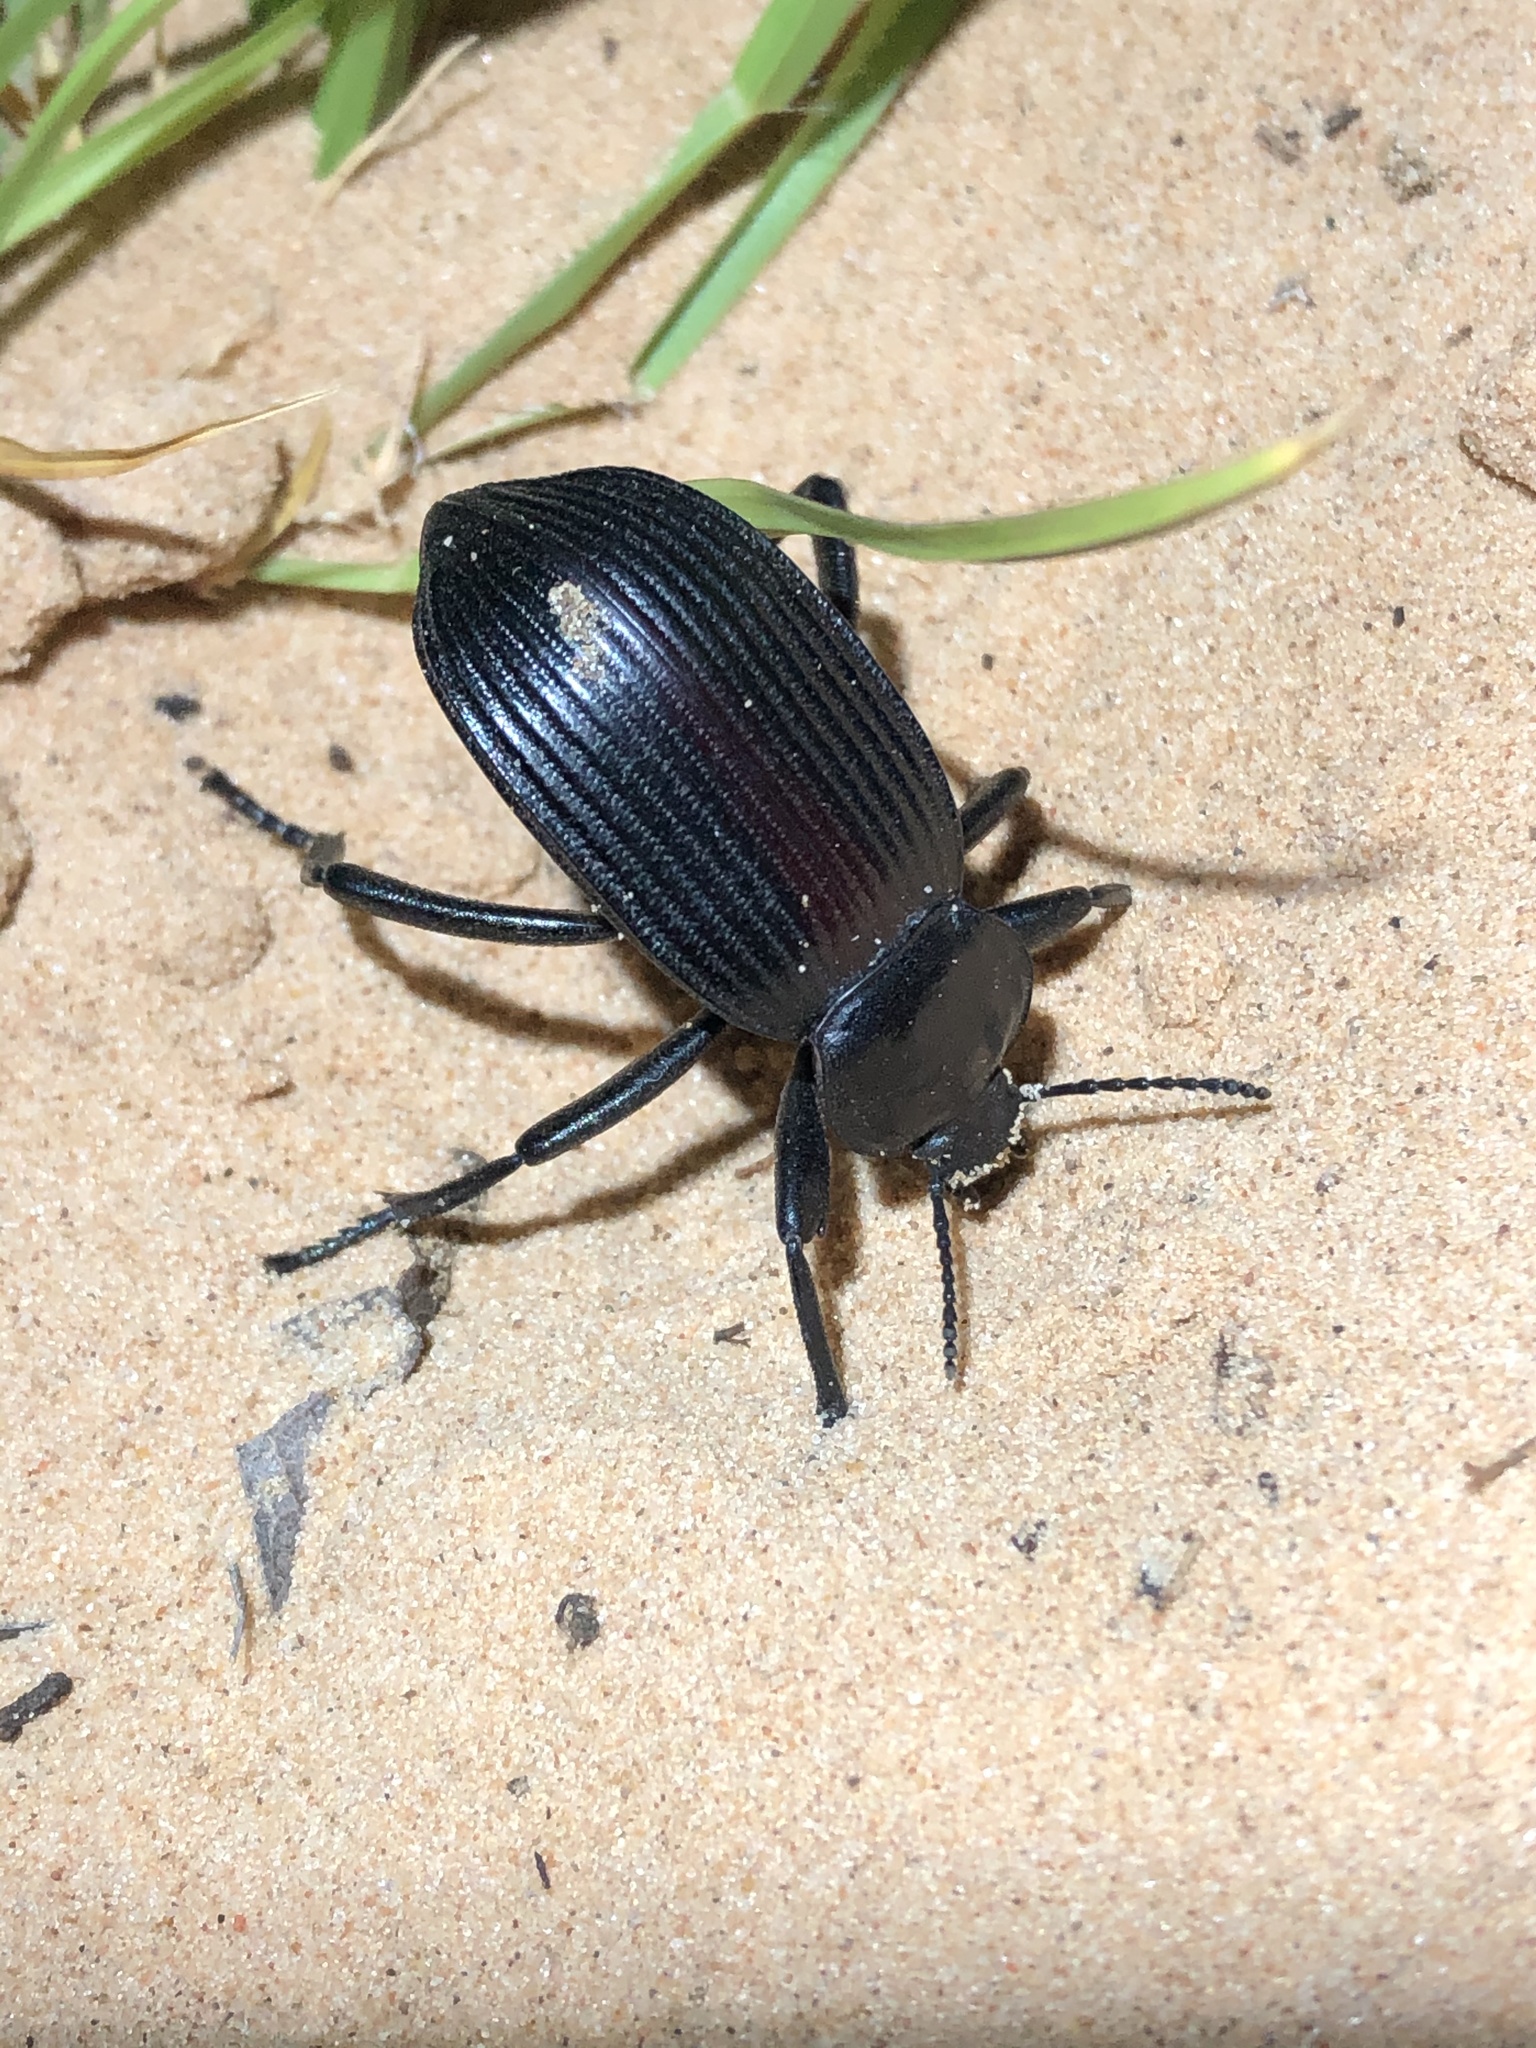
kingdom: Animalia
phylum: Arthropoda
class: Insecta
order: Coleoptera
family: Tenebrionidae
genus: Eleodes
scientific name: Eleodes acuta
